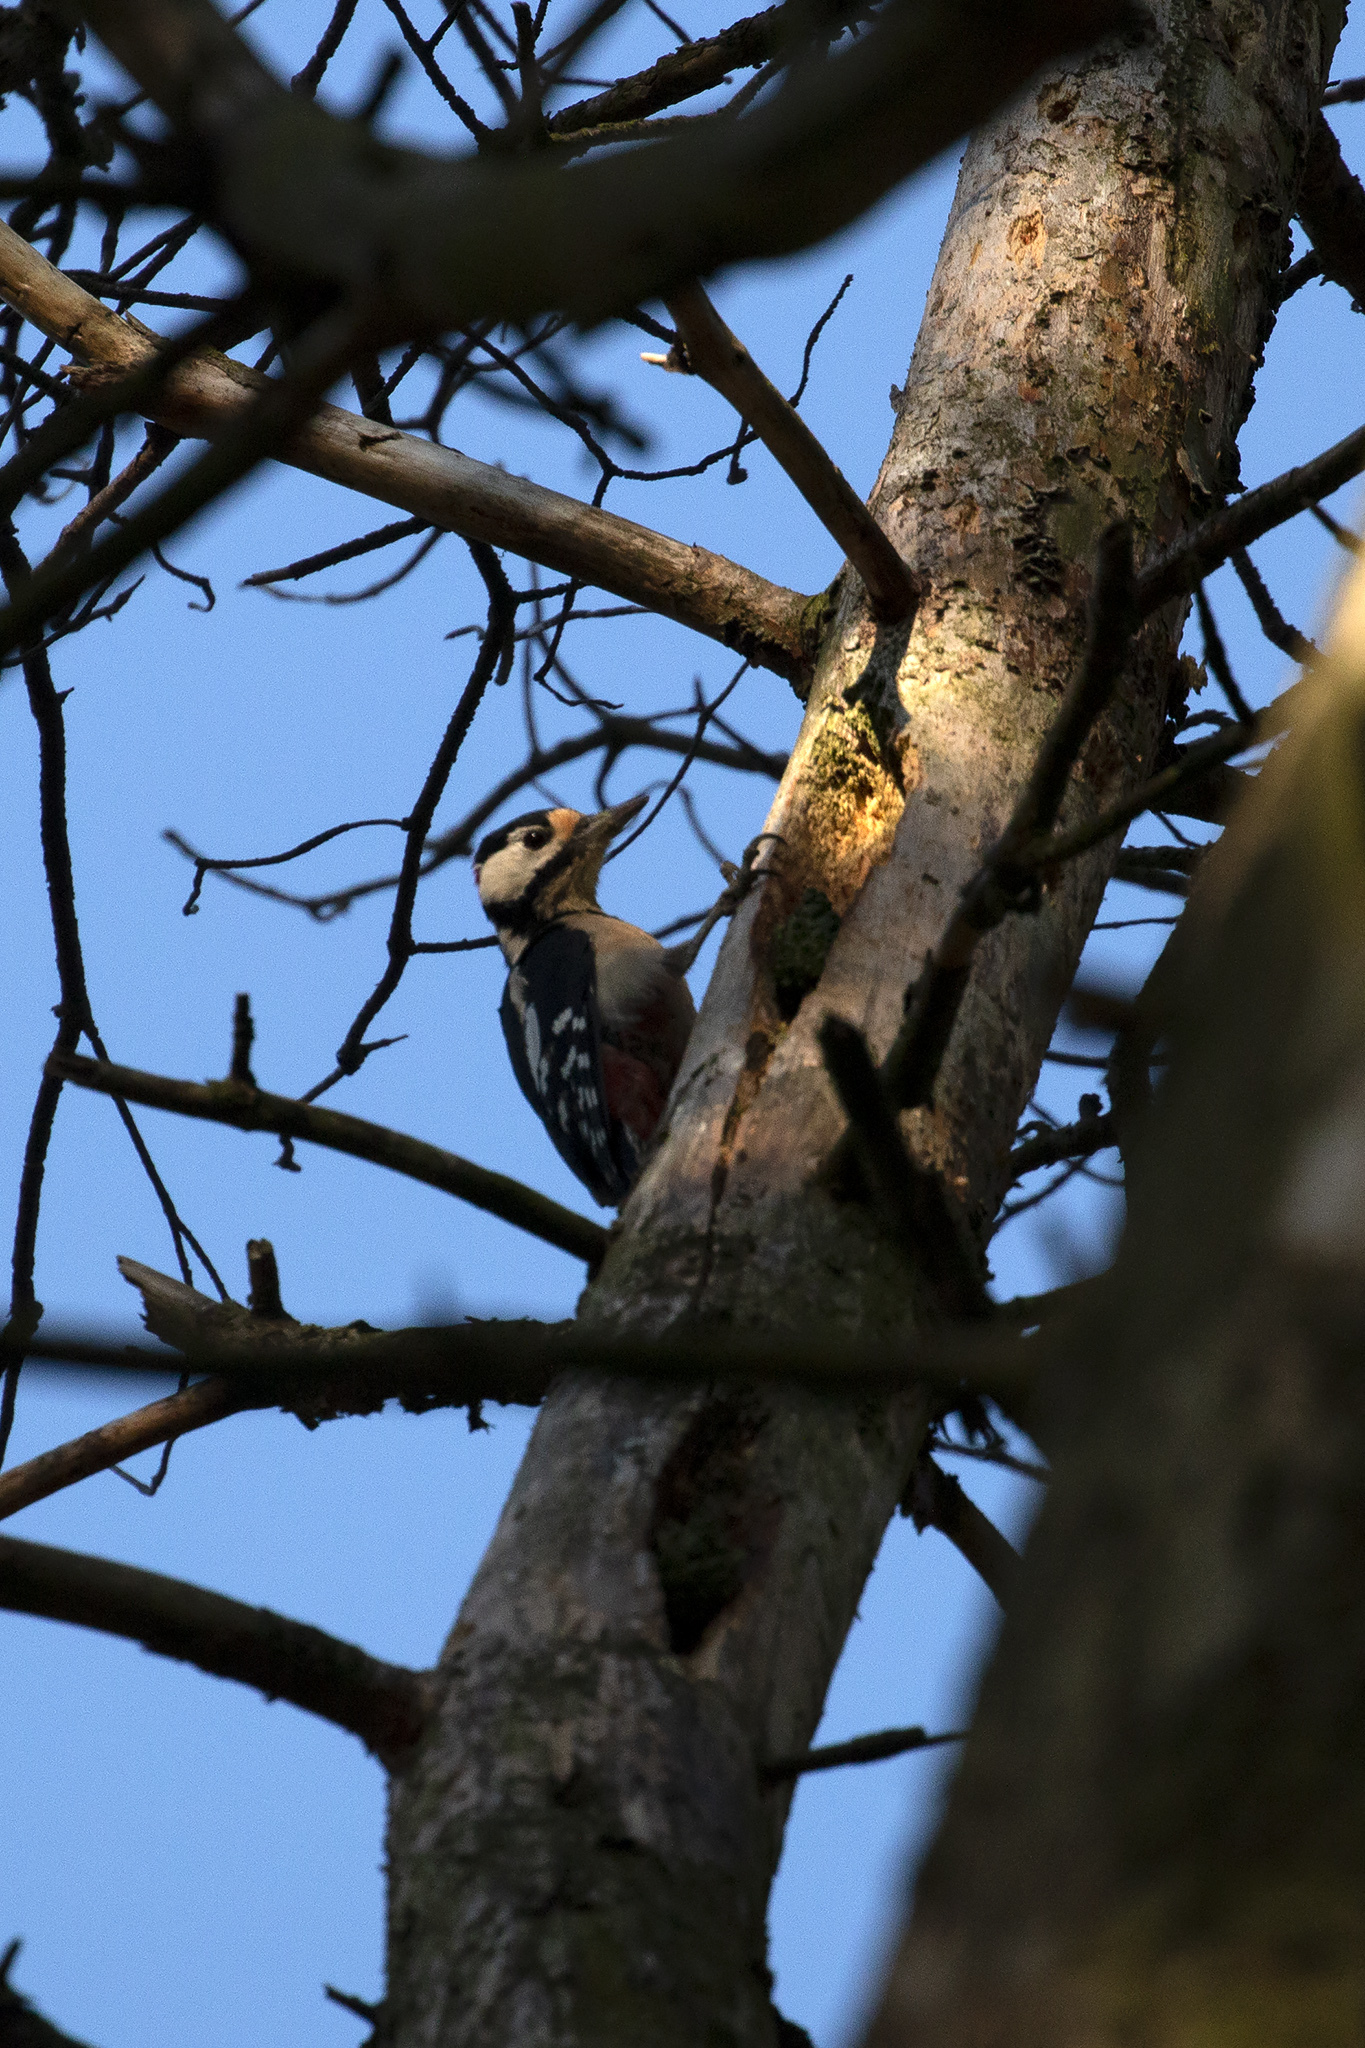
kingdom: Animalia
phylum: Chordata
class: Aves
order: Piciformes
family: Picidae
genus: Dendrocopos
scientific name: Dendrocopos major
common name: Great spotted woodpecker
